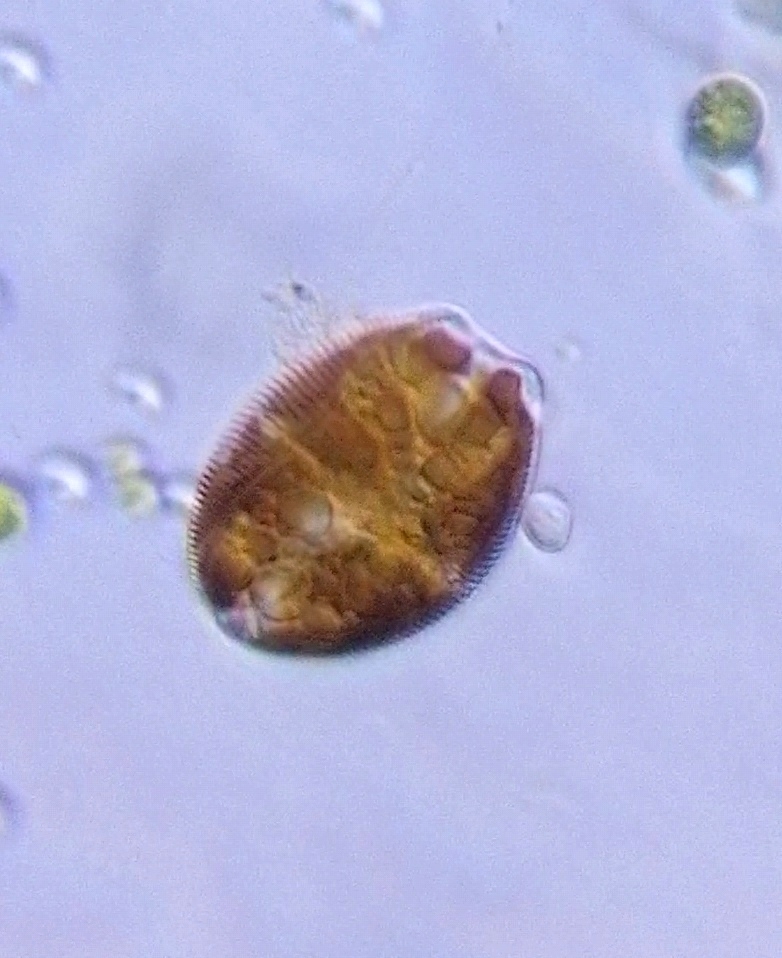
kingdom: Chromista
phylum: Ochrophyta
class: Bacillariophyceae
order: Thalassiophysales
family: Catenulaceae
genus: Amphora
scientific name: Amphora
